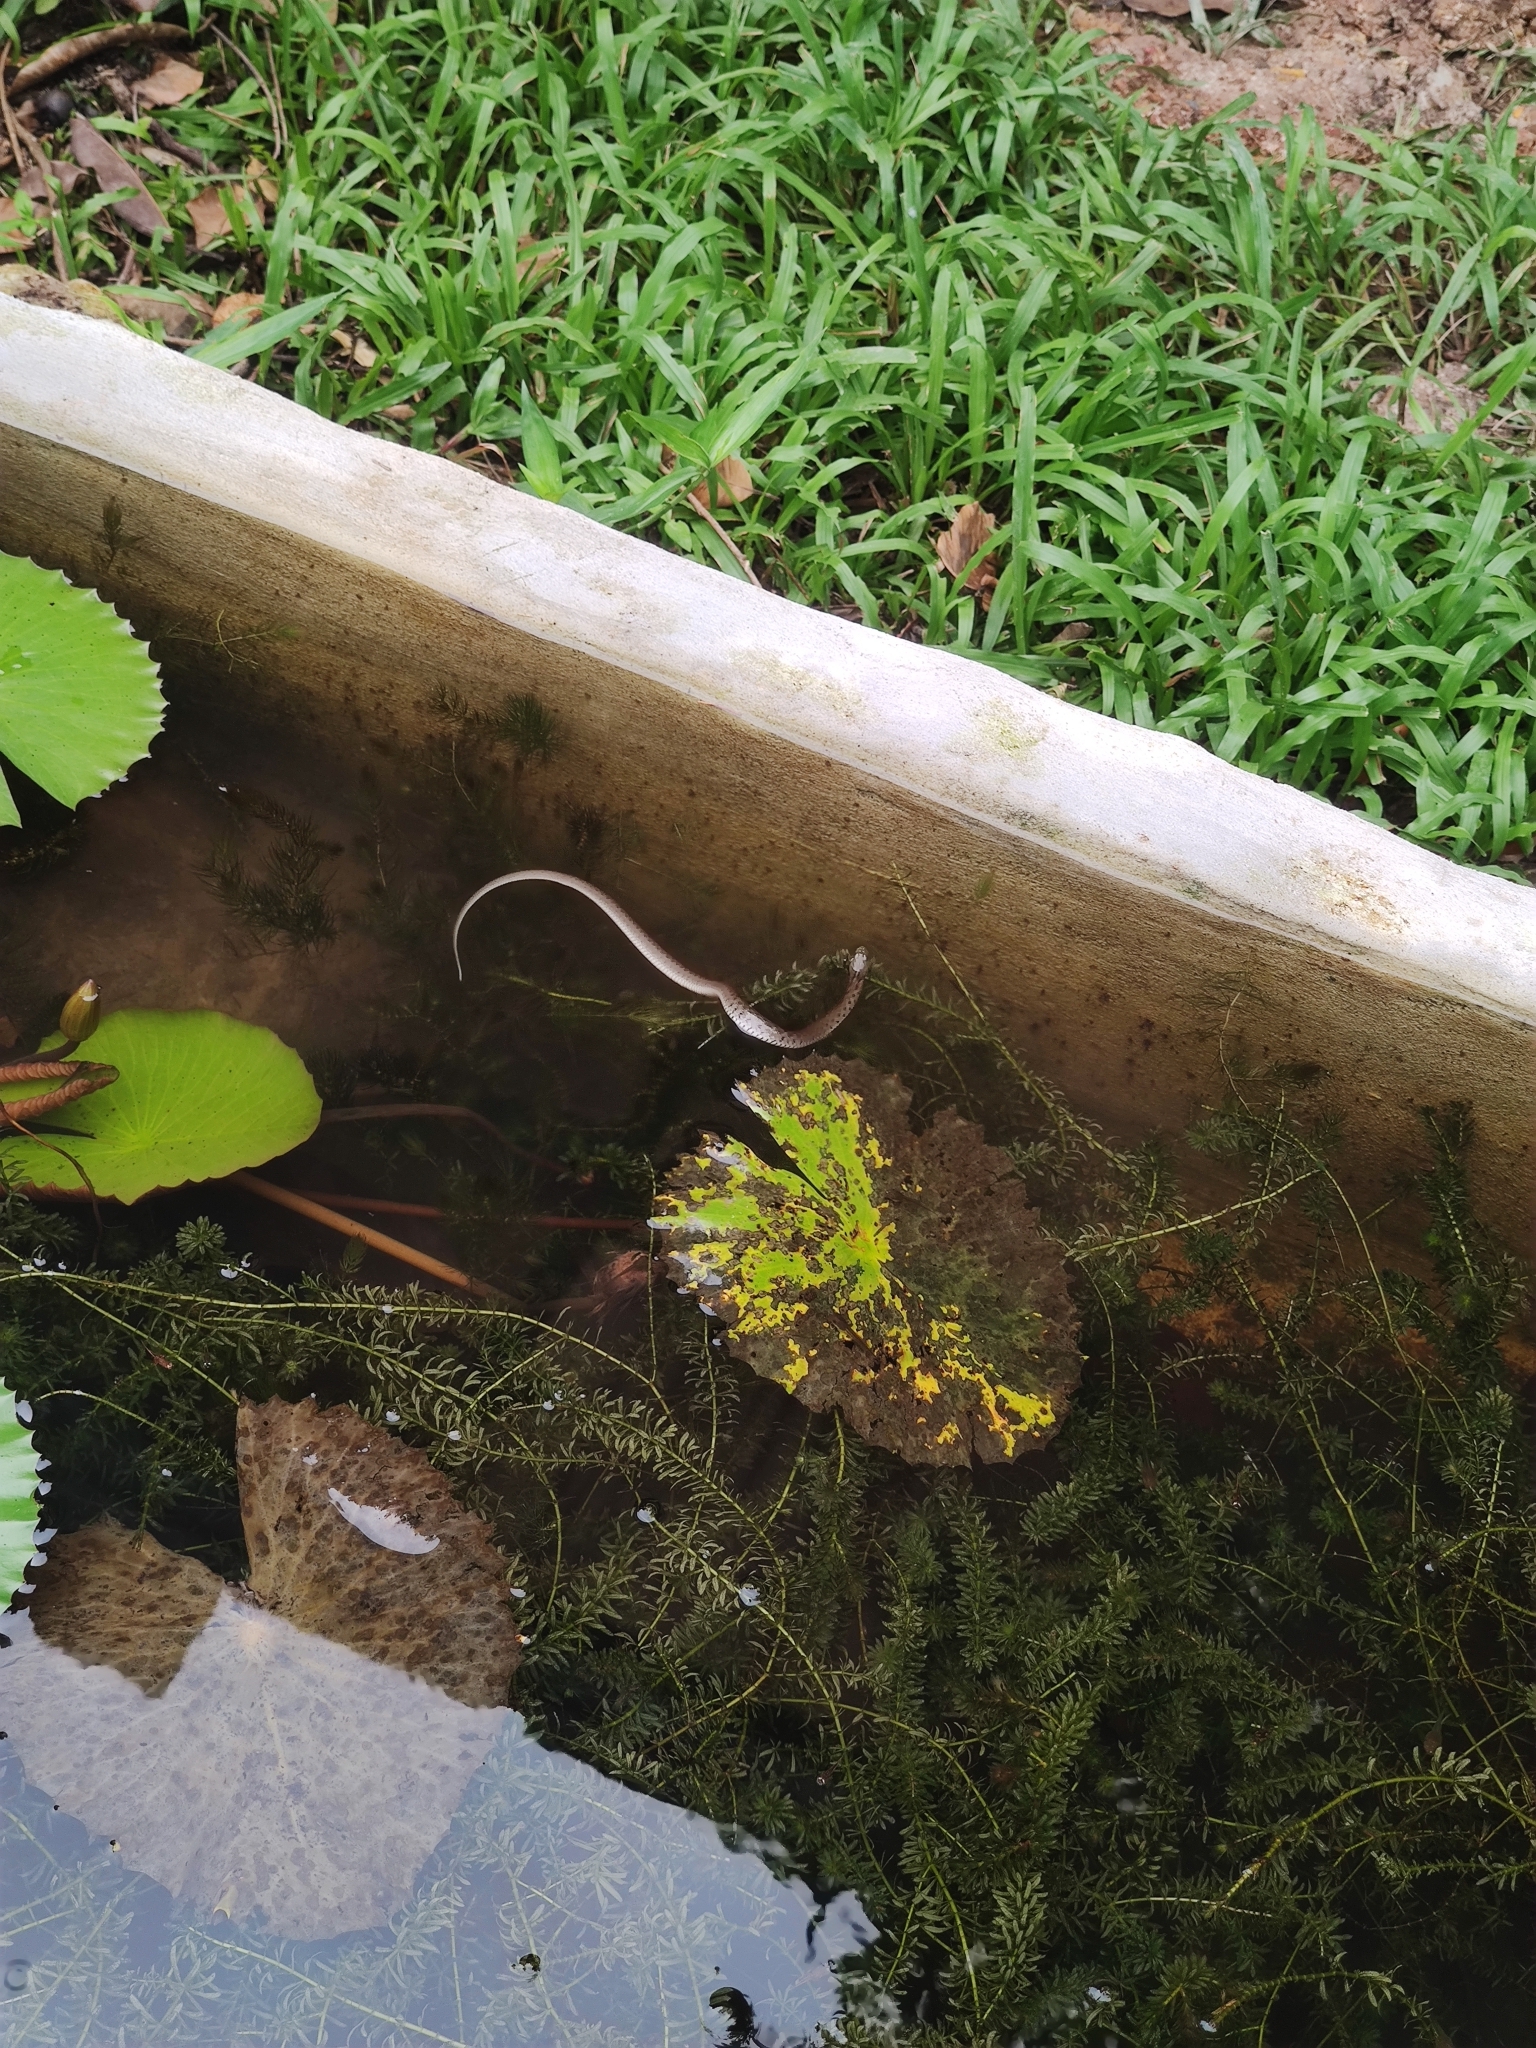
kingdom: Animalia
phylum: Chordata
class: Squamata
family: Colubridae
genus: Fowlea
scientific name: Fowlea flavipunctatus
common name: Yellow-spotted keelback
